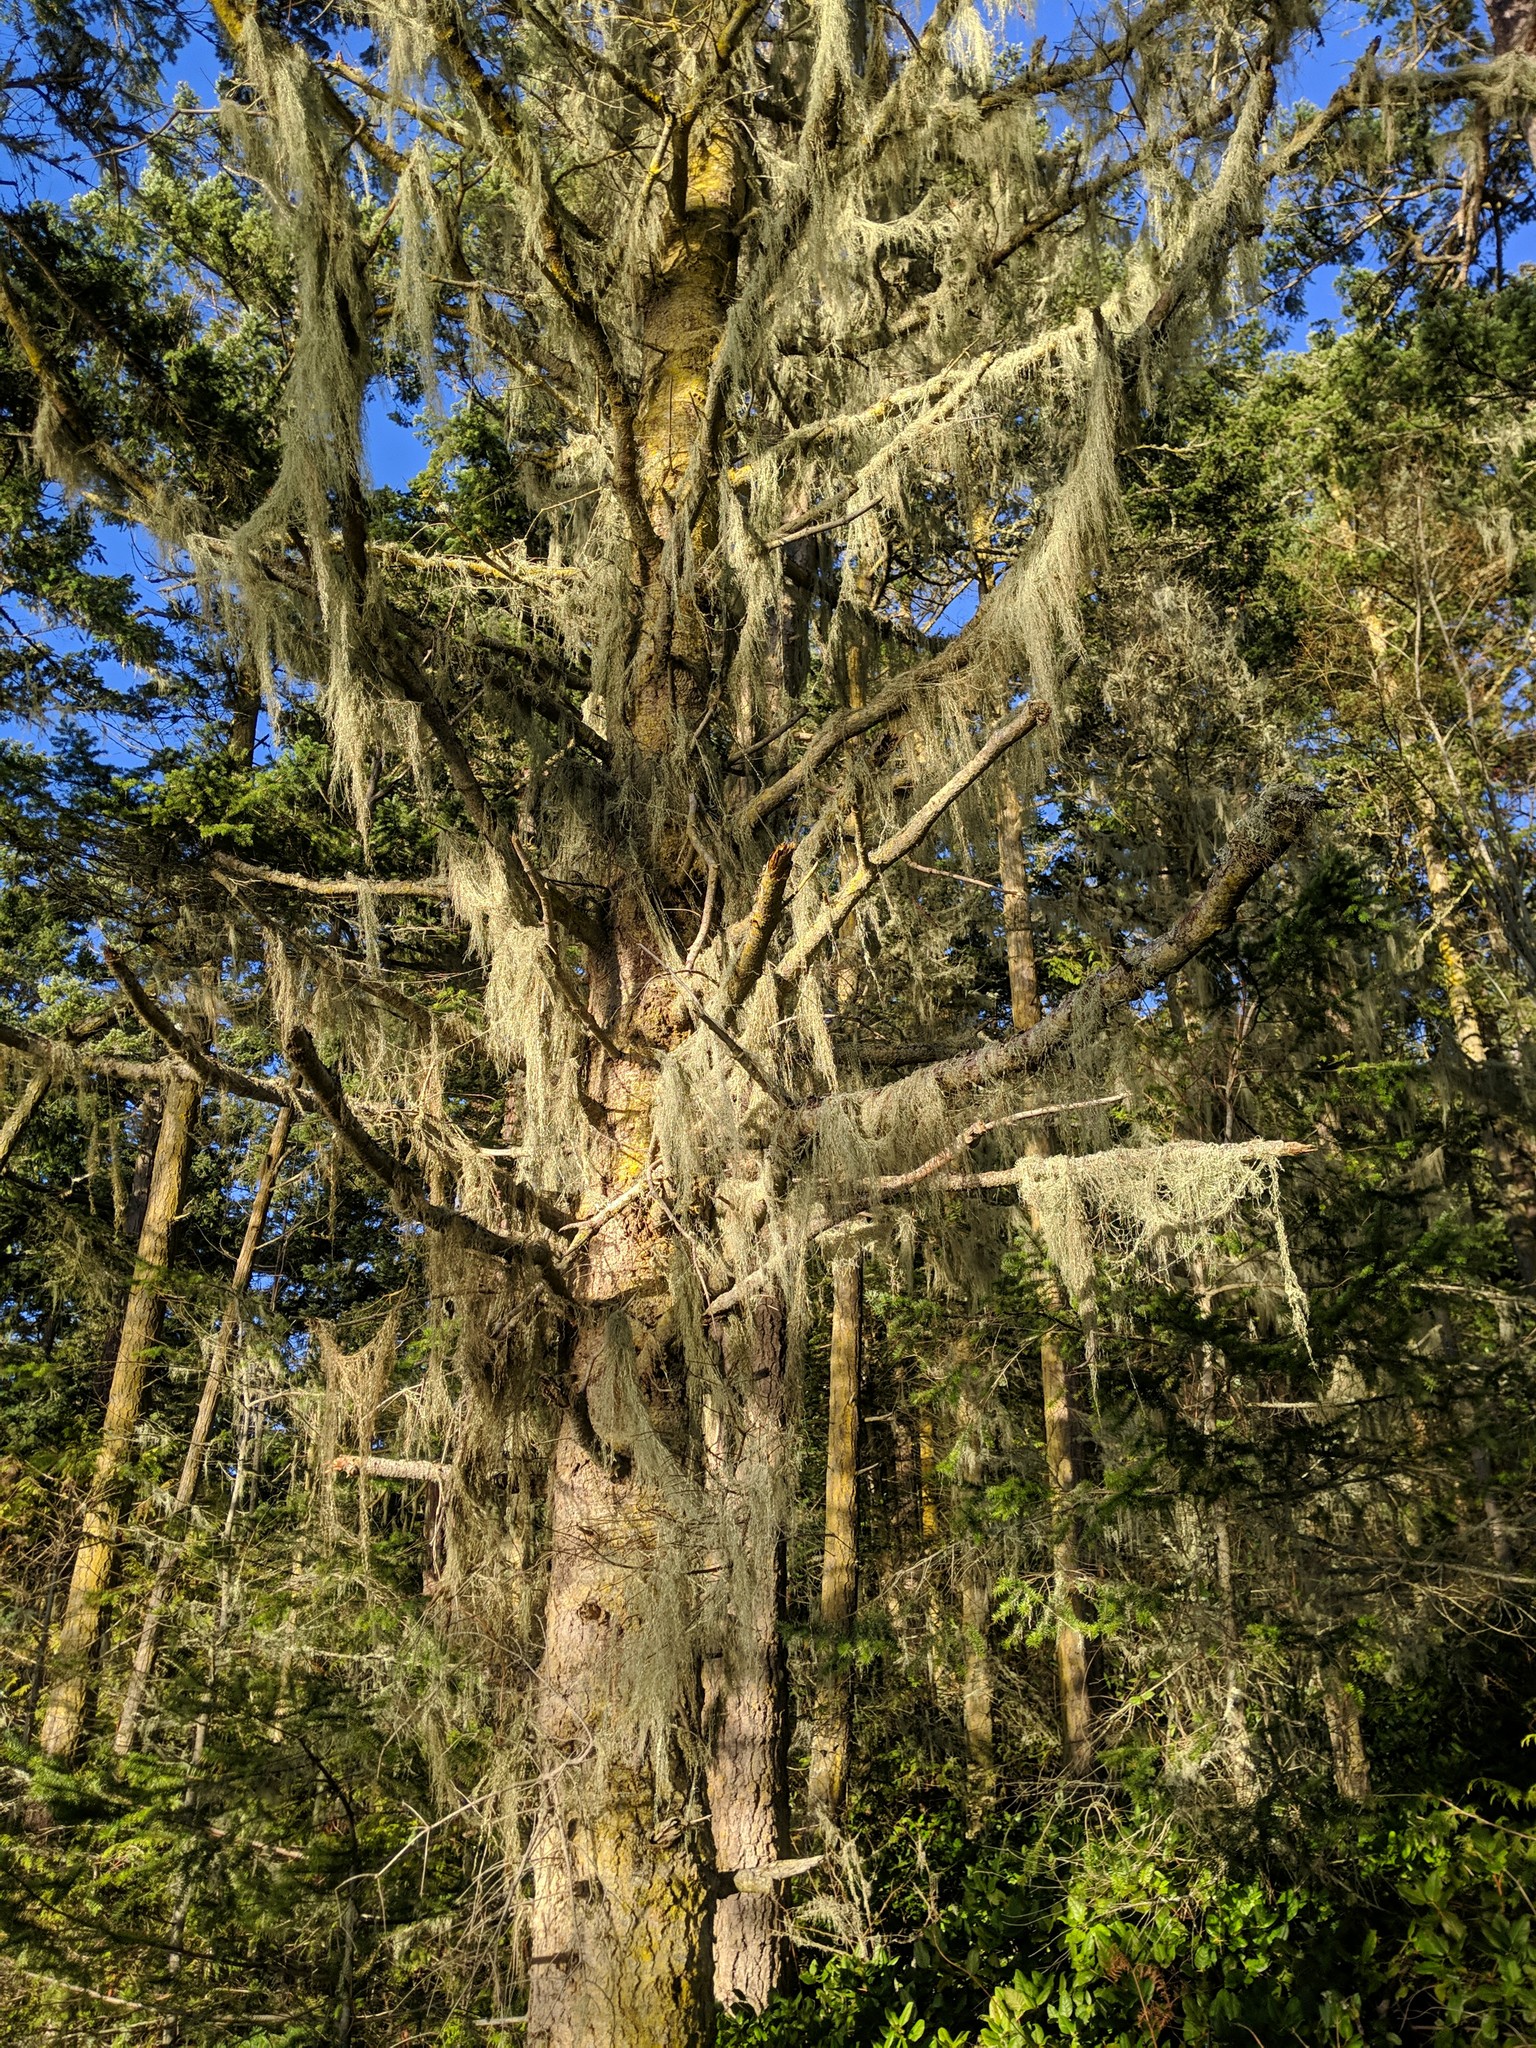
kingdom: Fungi
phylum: Ascomycota
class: Lecanoromycetes
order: Lecanorales
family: Ramalinaceae
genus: Ramalina
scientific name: Ramalina menziesii
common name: Lace lichen
